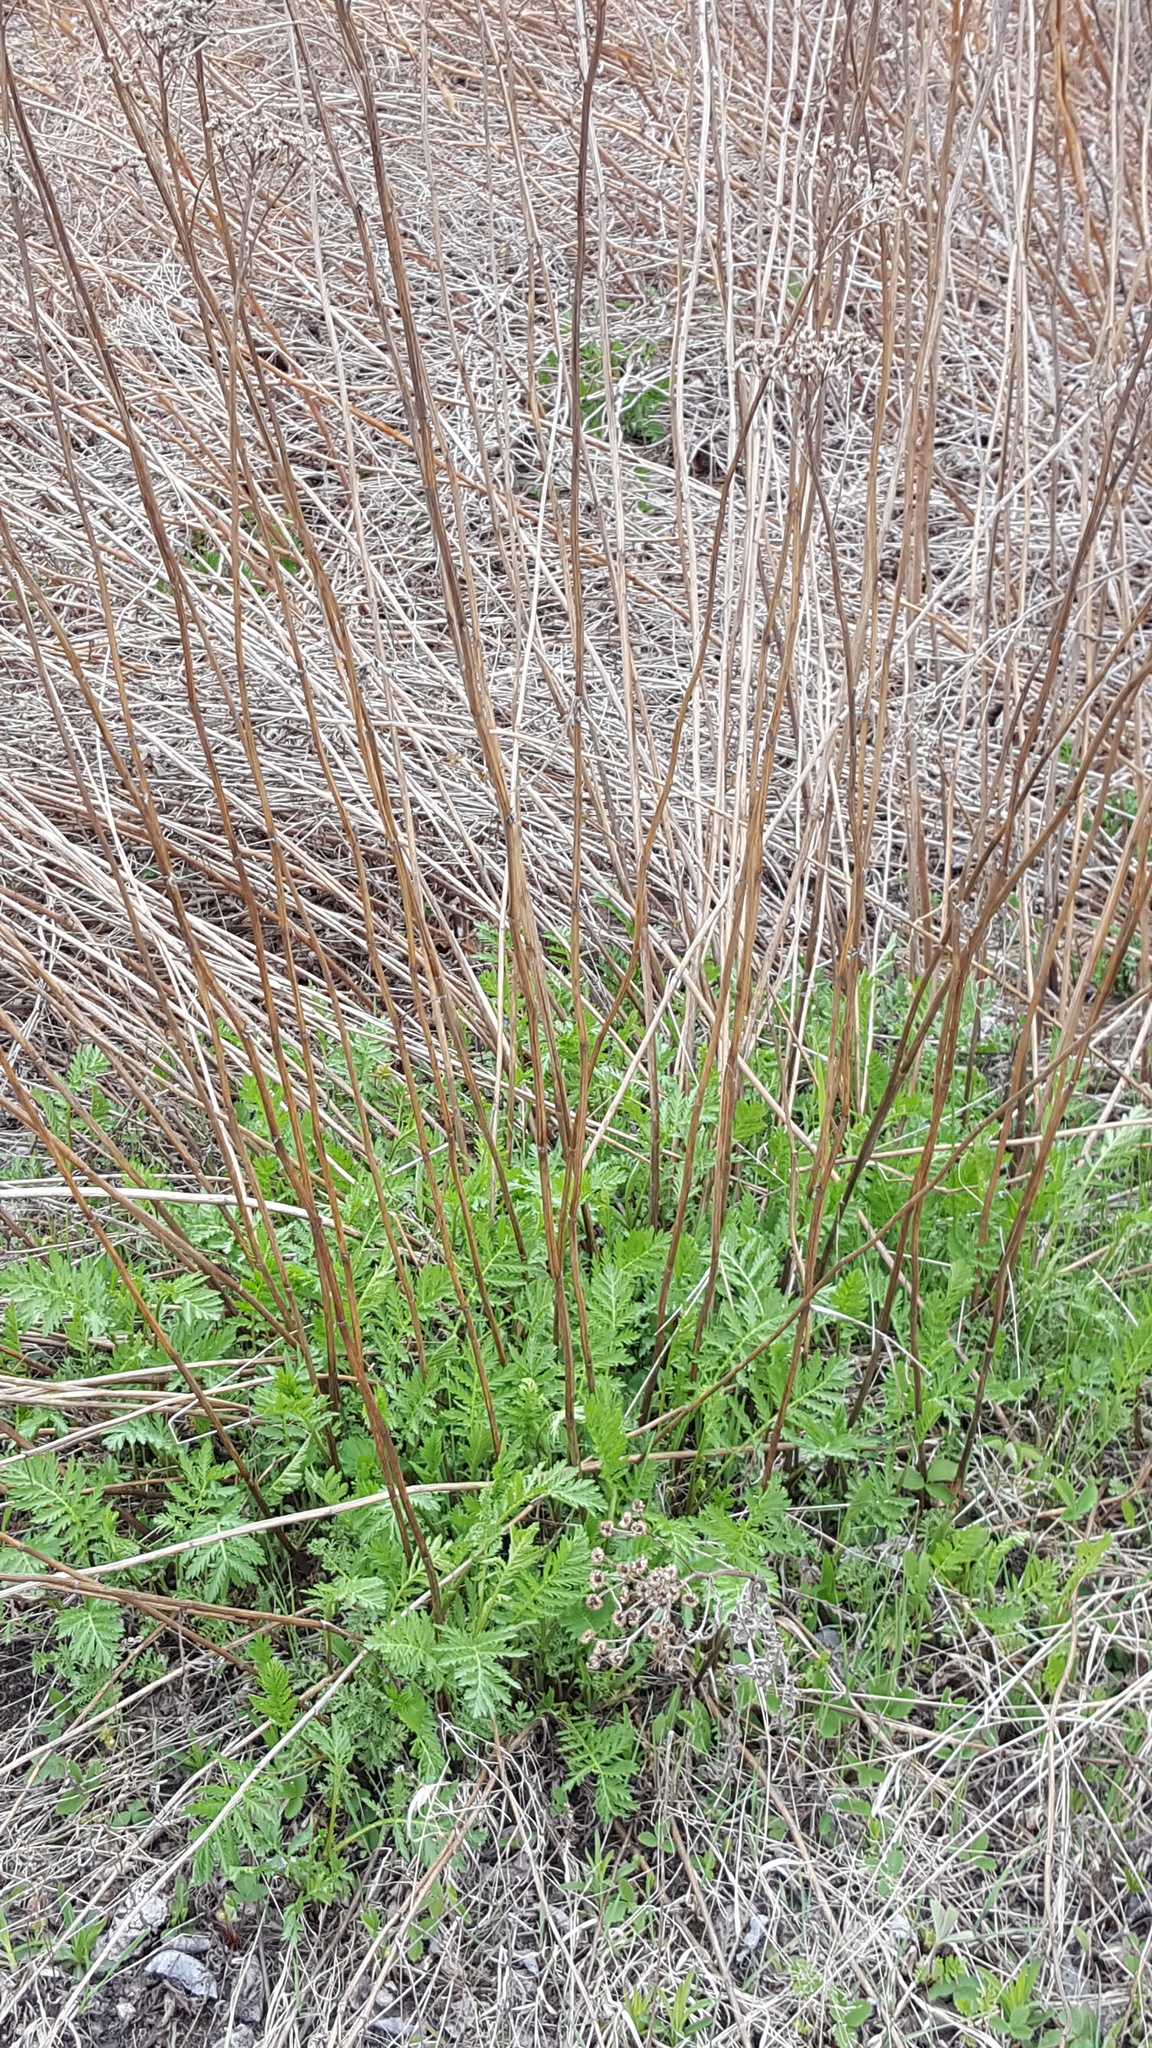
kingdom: Plantae
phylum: Tracheophyta
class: Magnoliopsida
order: Asterales
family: Asteraceae
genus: Tanacetum
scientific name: Tanacetum vulgare
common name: Common tansy
